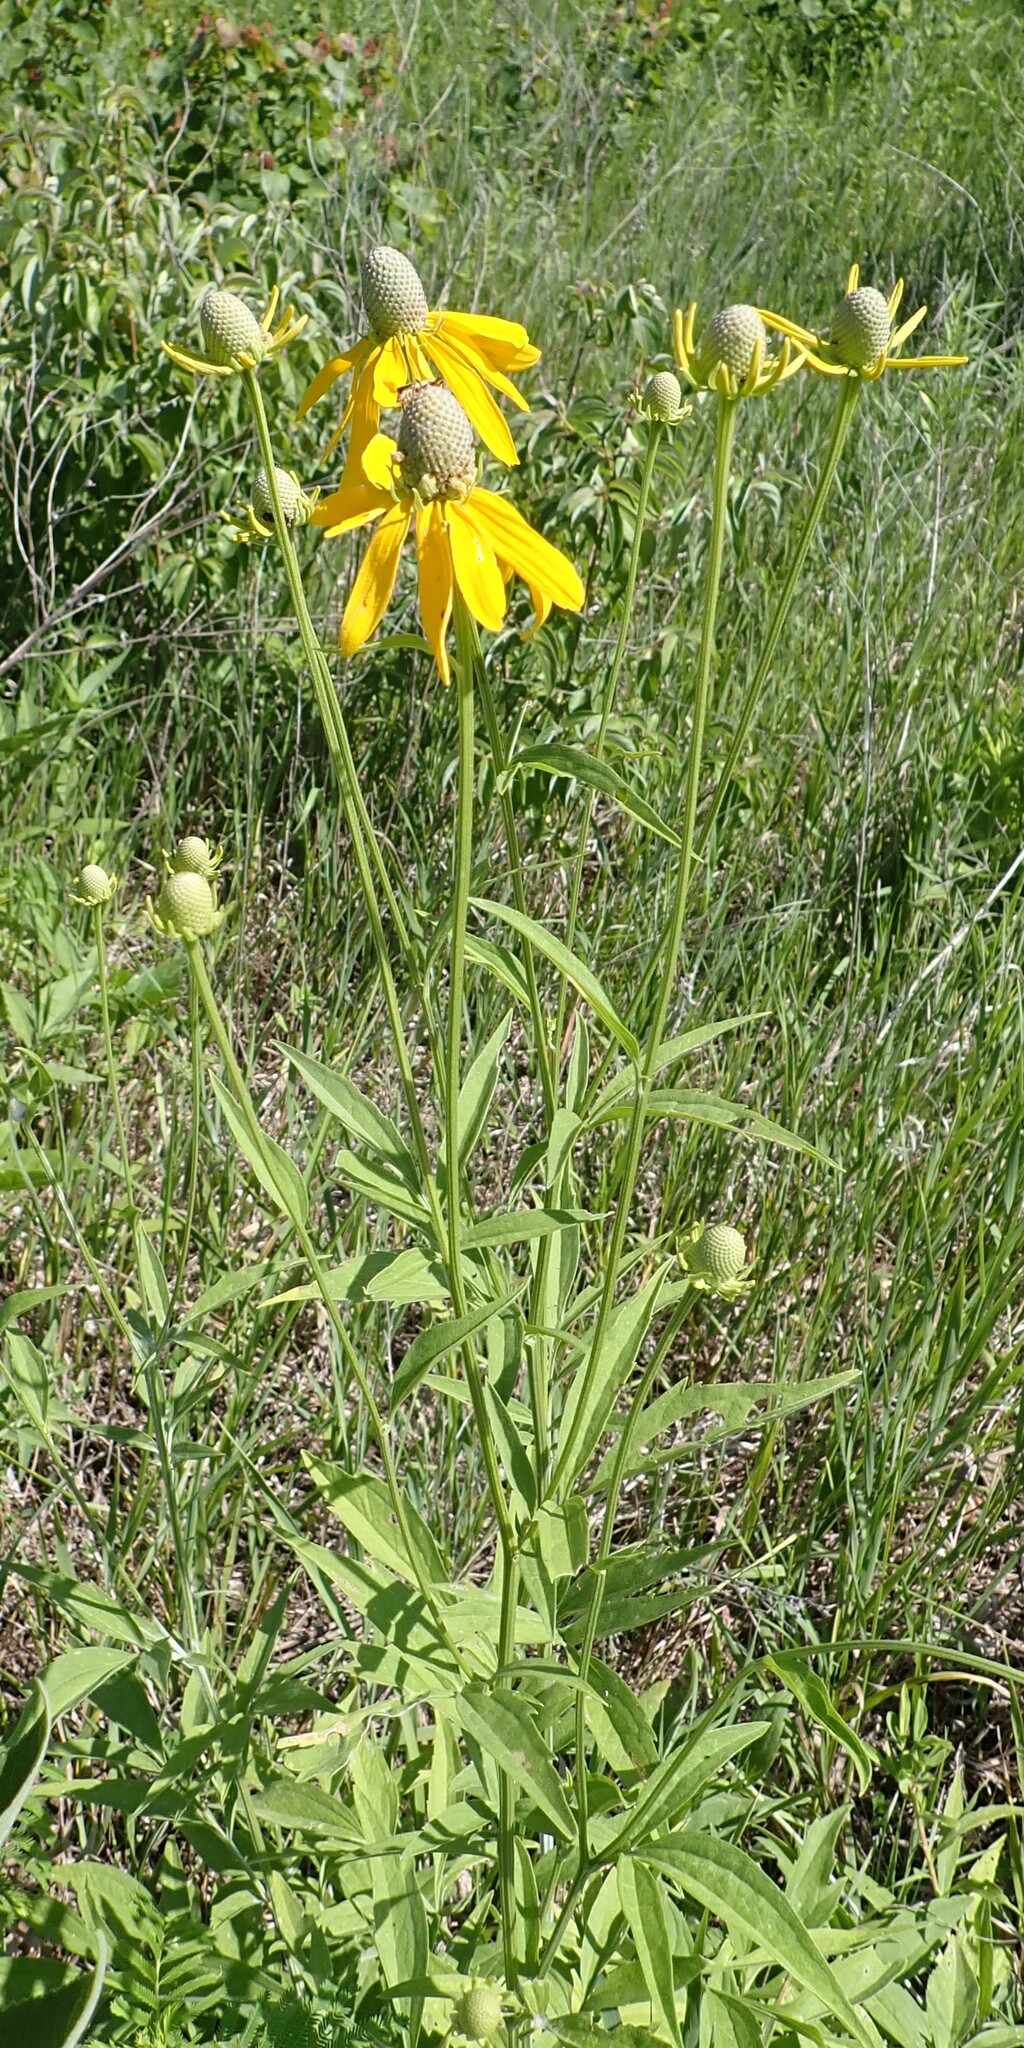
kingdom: Plantae
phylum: Tracheophyta
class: Magnoliopsida
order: Asterales
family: Asteraceae
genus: Ratibida
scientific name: Ratibida pinnata
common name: Drooping prairie-coneflower
